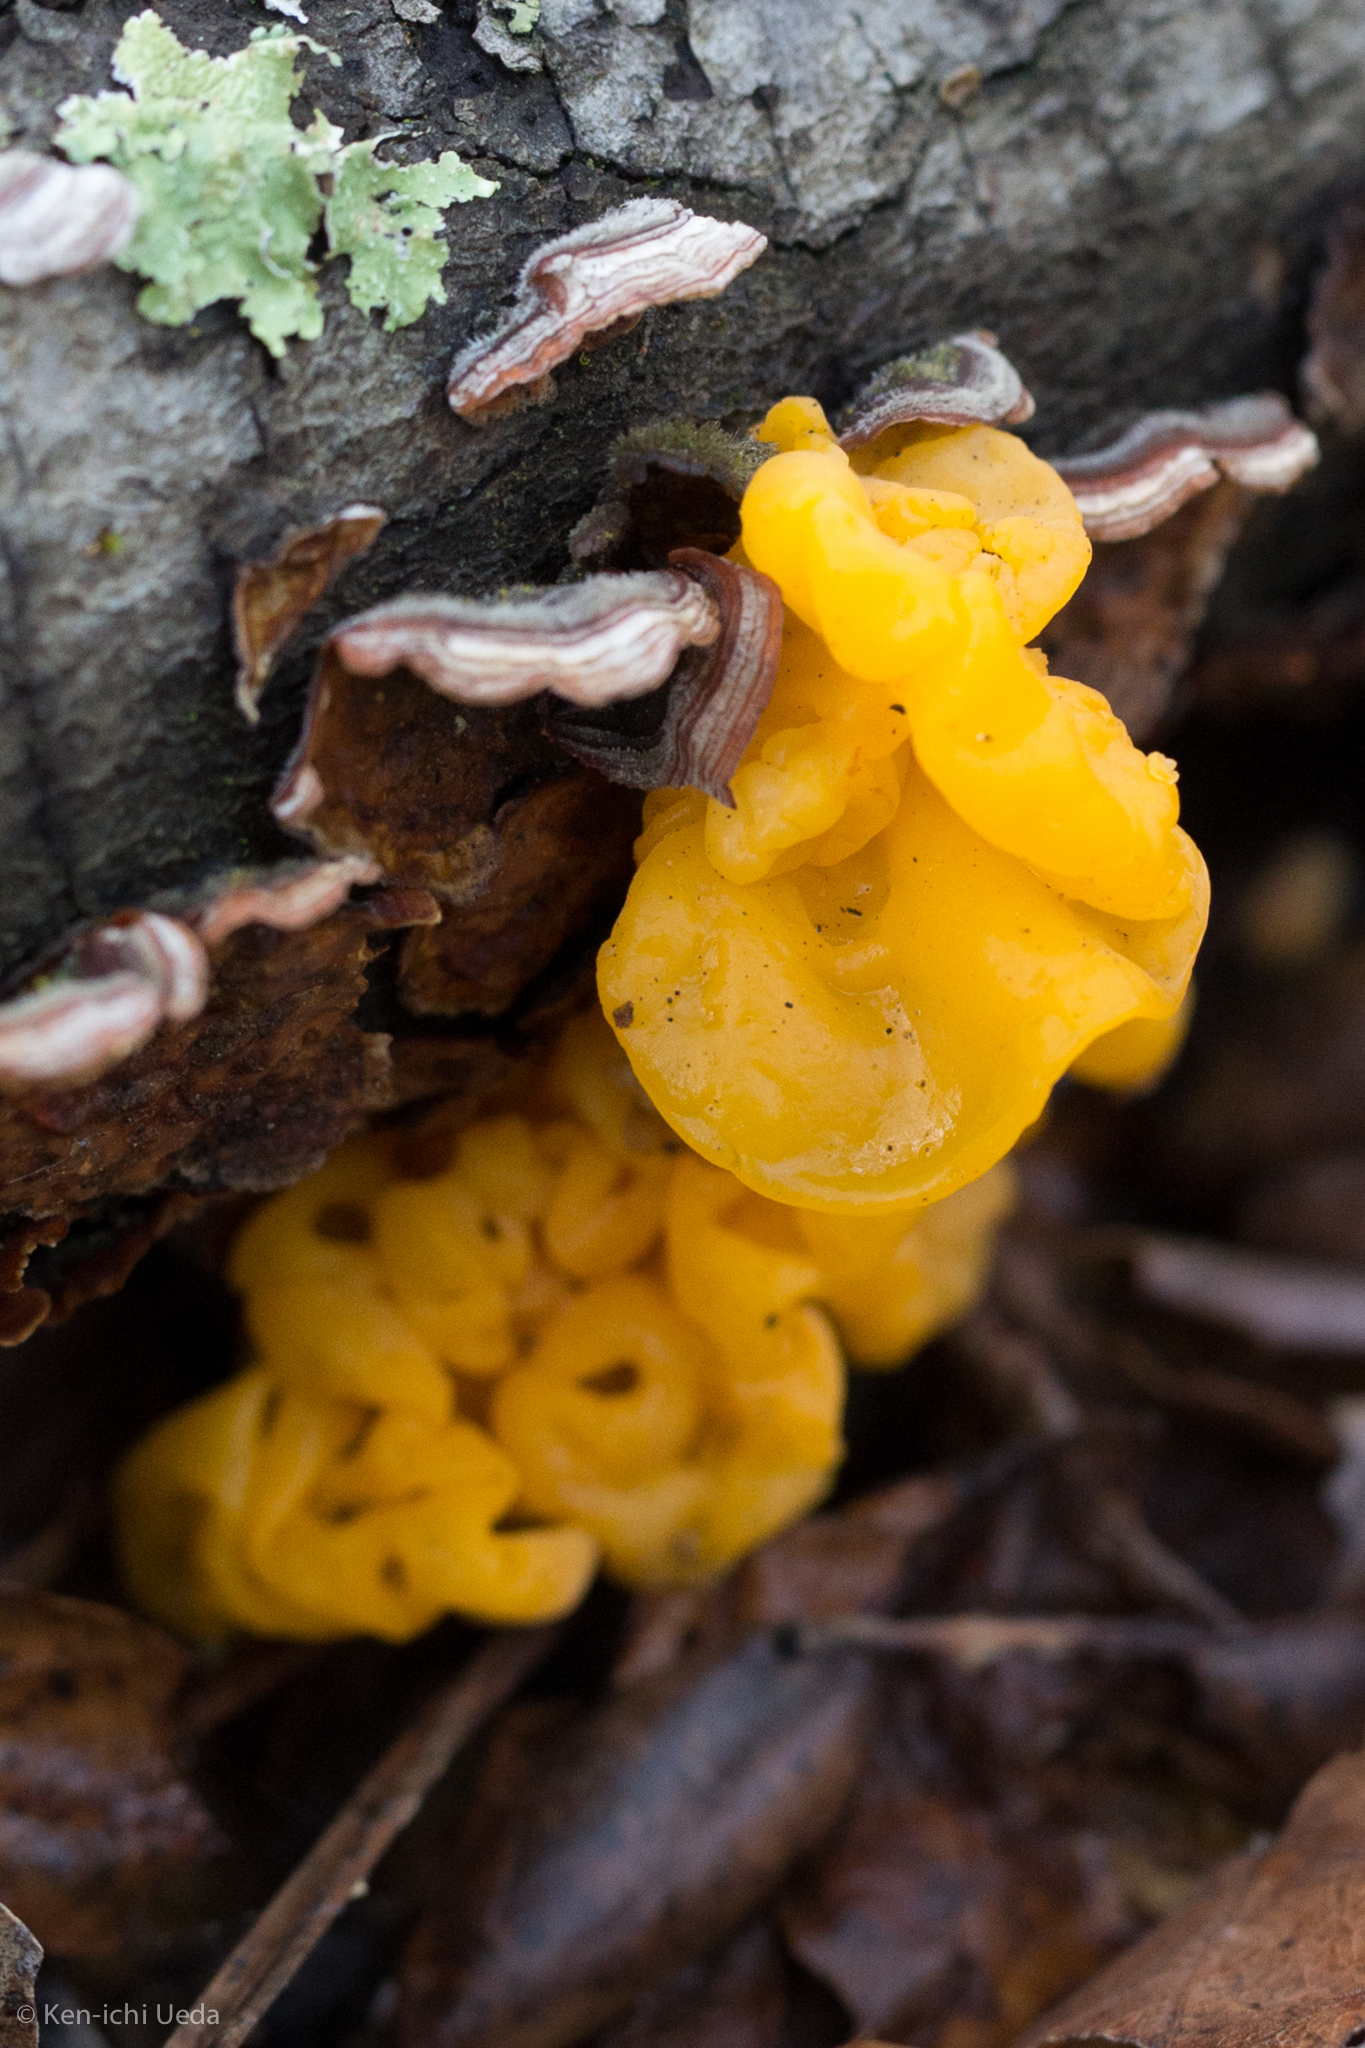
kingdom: Fungi
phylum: Basidiomycota
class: Tremellomycetes
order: Tremellales
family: Naemateliaceae
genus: Naematelia
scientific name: Naematelia aurantia
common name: Golden ear
